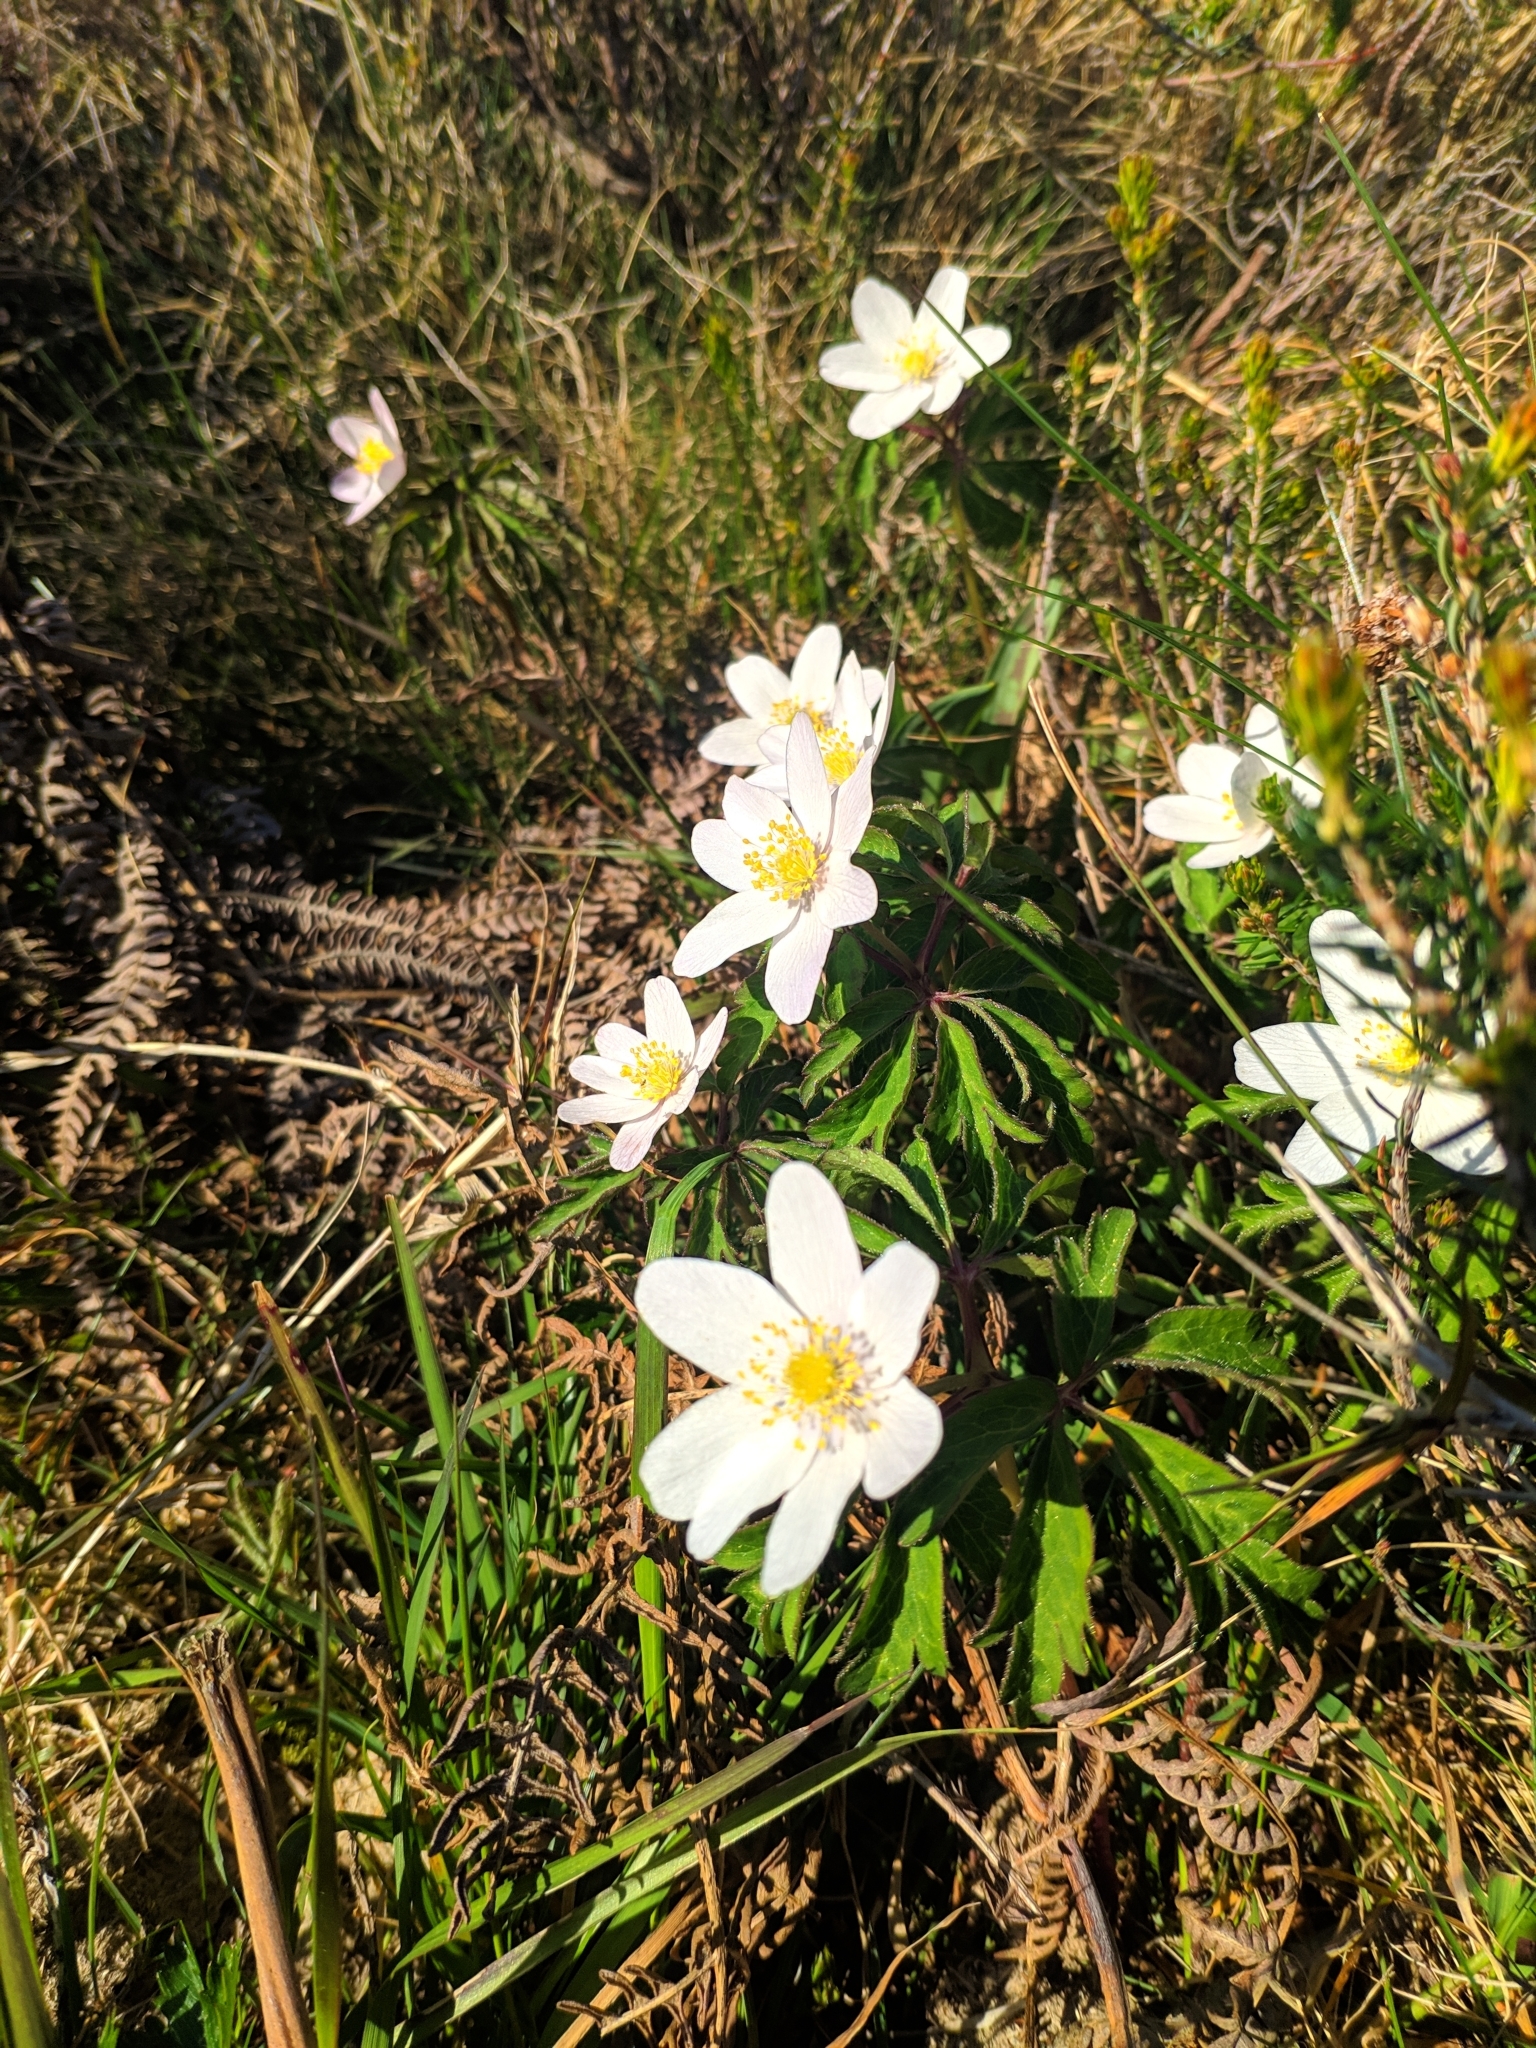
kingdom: Plantae
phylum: Tracheophyta
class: Magnoliopsida
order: Ranunculales
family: Ranunculaceae
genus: Anemone
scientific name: Anemone nemorosa
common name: Wood anemone
